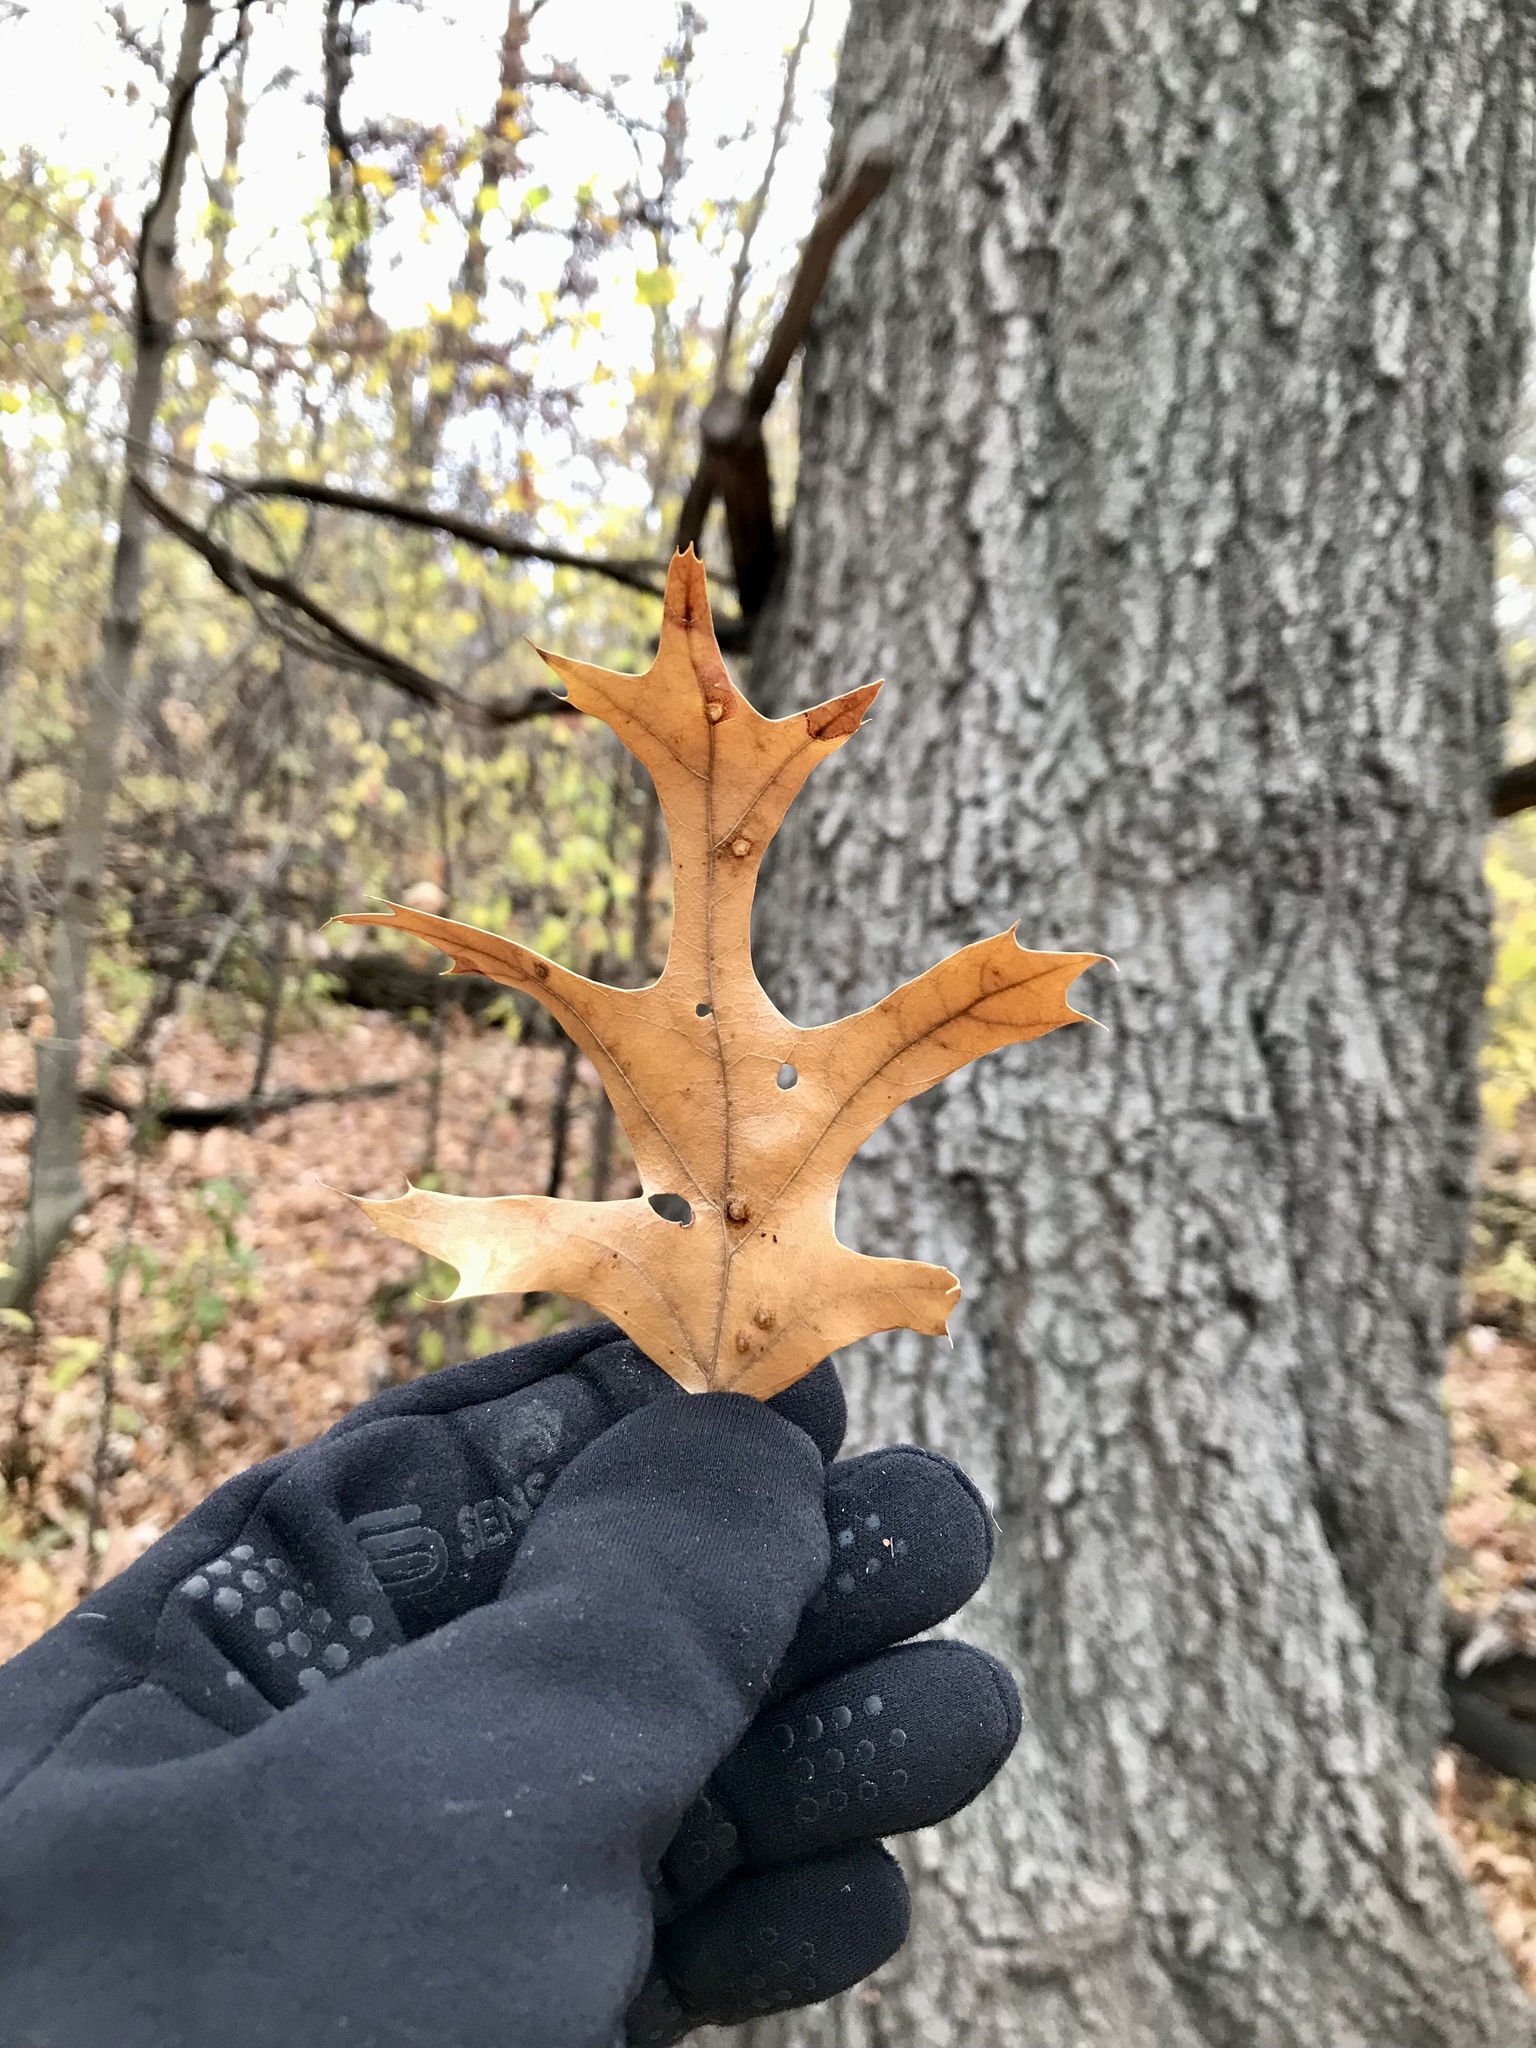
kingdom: Plantae
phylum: Tracheophyta
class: Magnoliopsida
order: Fagales
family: Fagaceae
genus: Quercus
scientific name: Quercus ellipsoidalis
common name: Hill's oak
